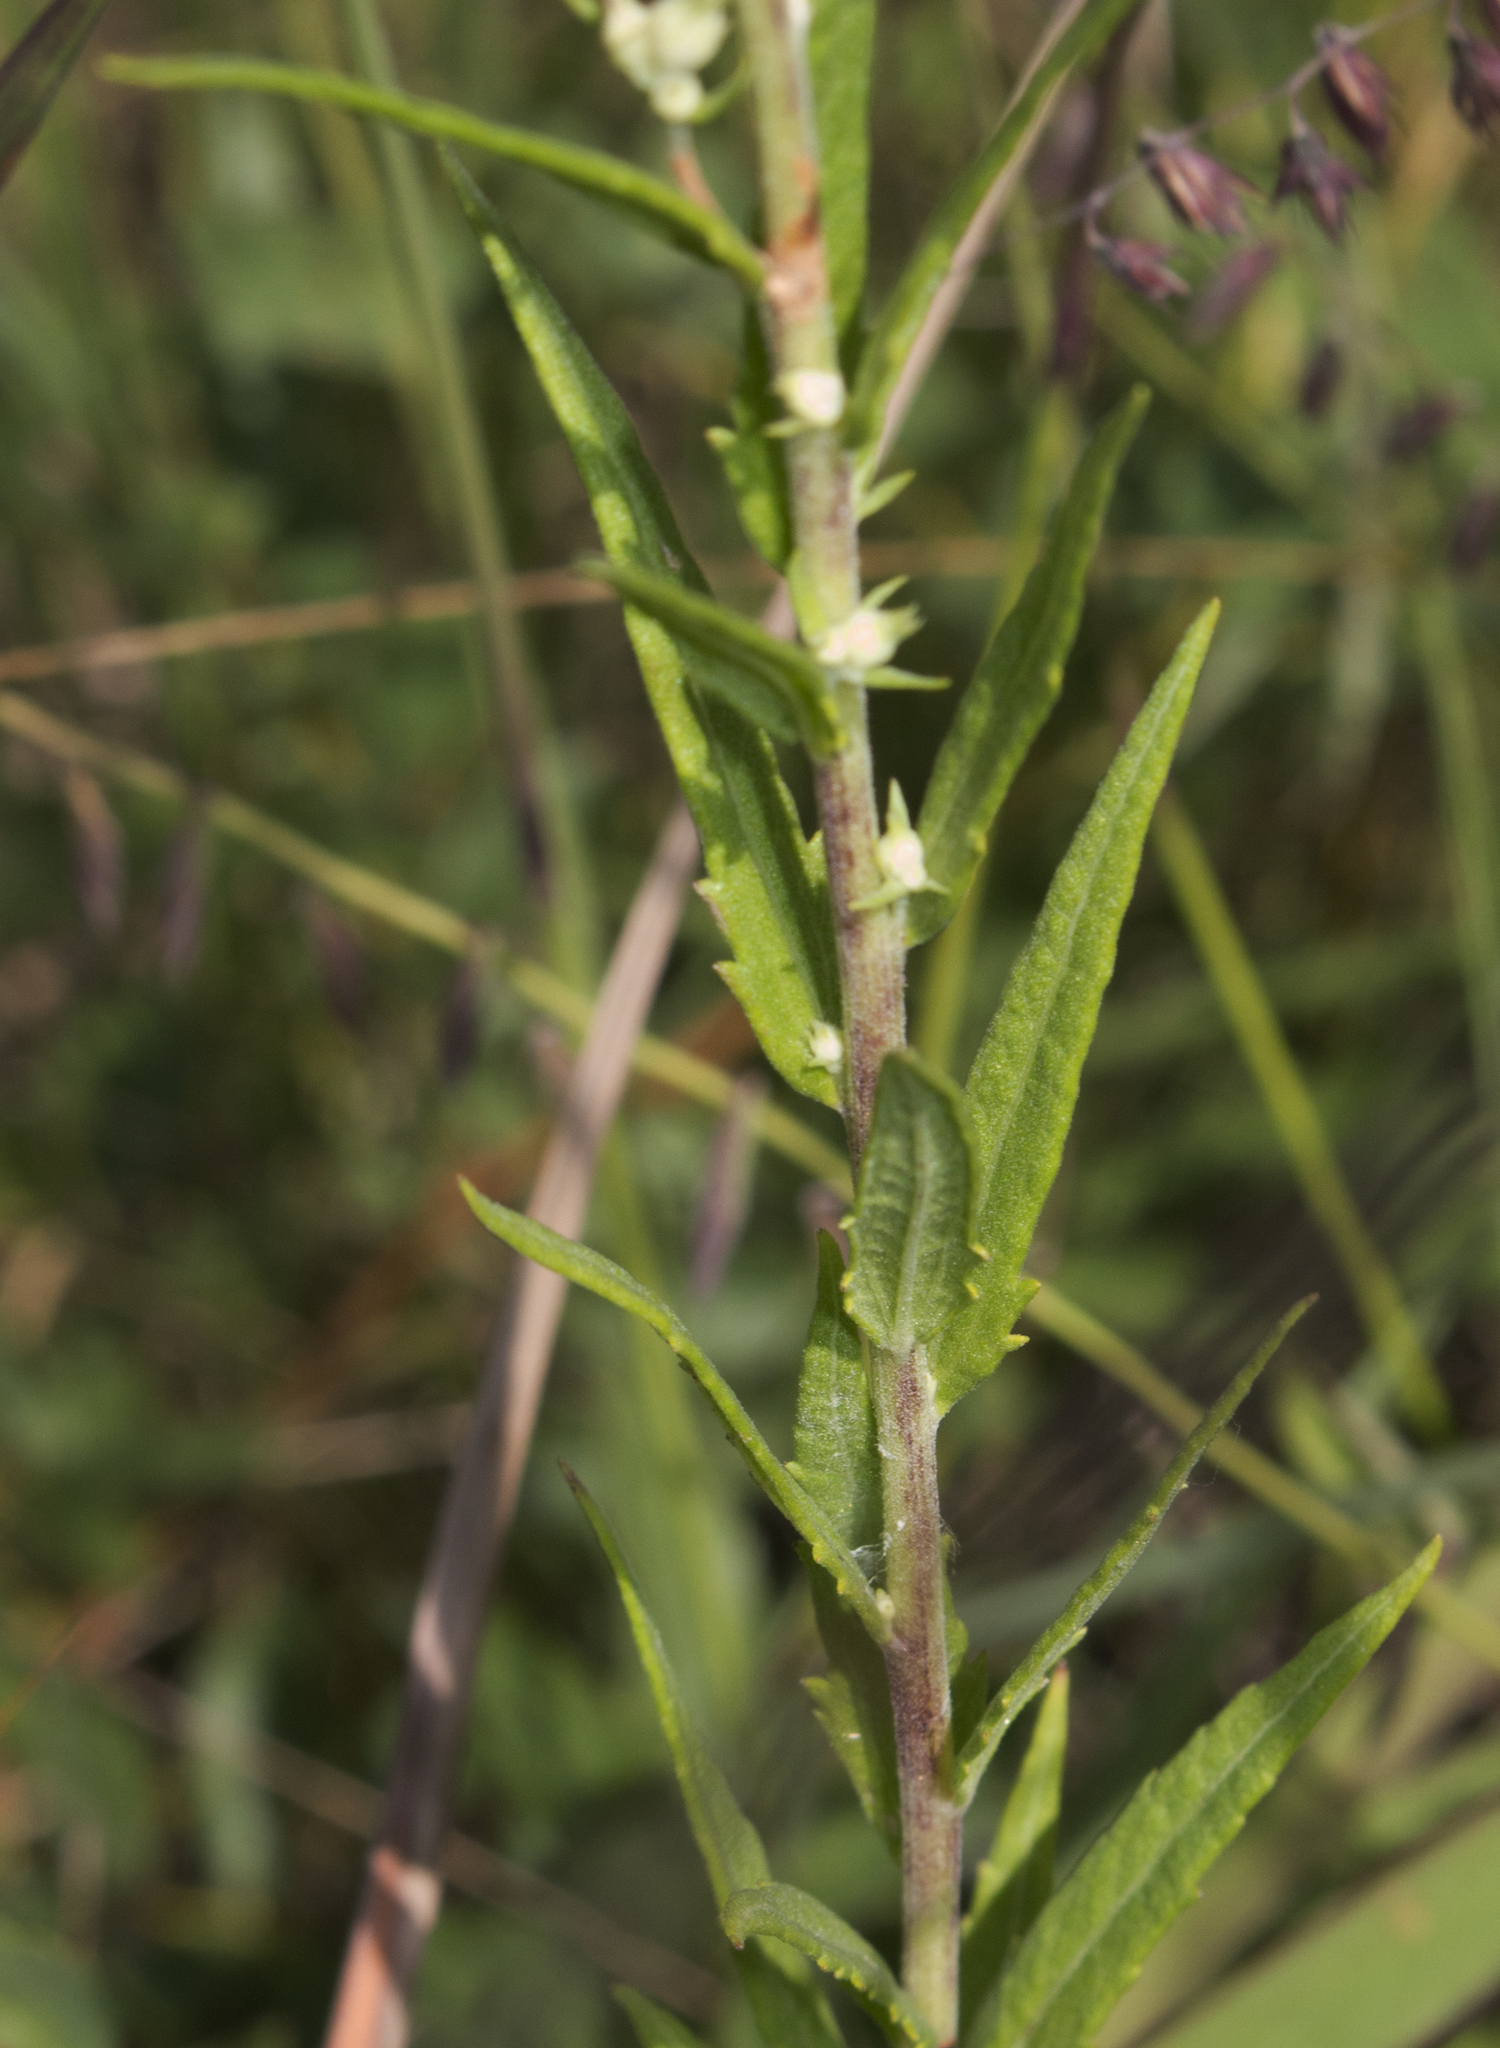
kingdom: Plantae
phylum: Tracheophyta
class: Magnoliopsida
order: Asterales
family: Asteraceae
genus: Brickellia
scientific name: Brickellia eupatorioides
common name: False boneset
